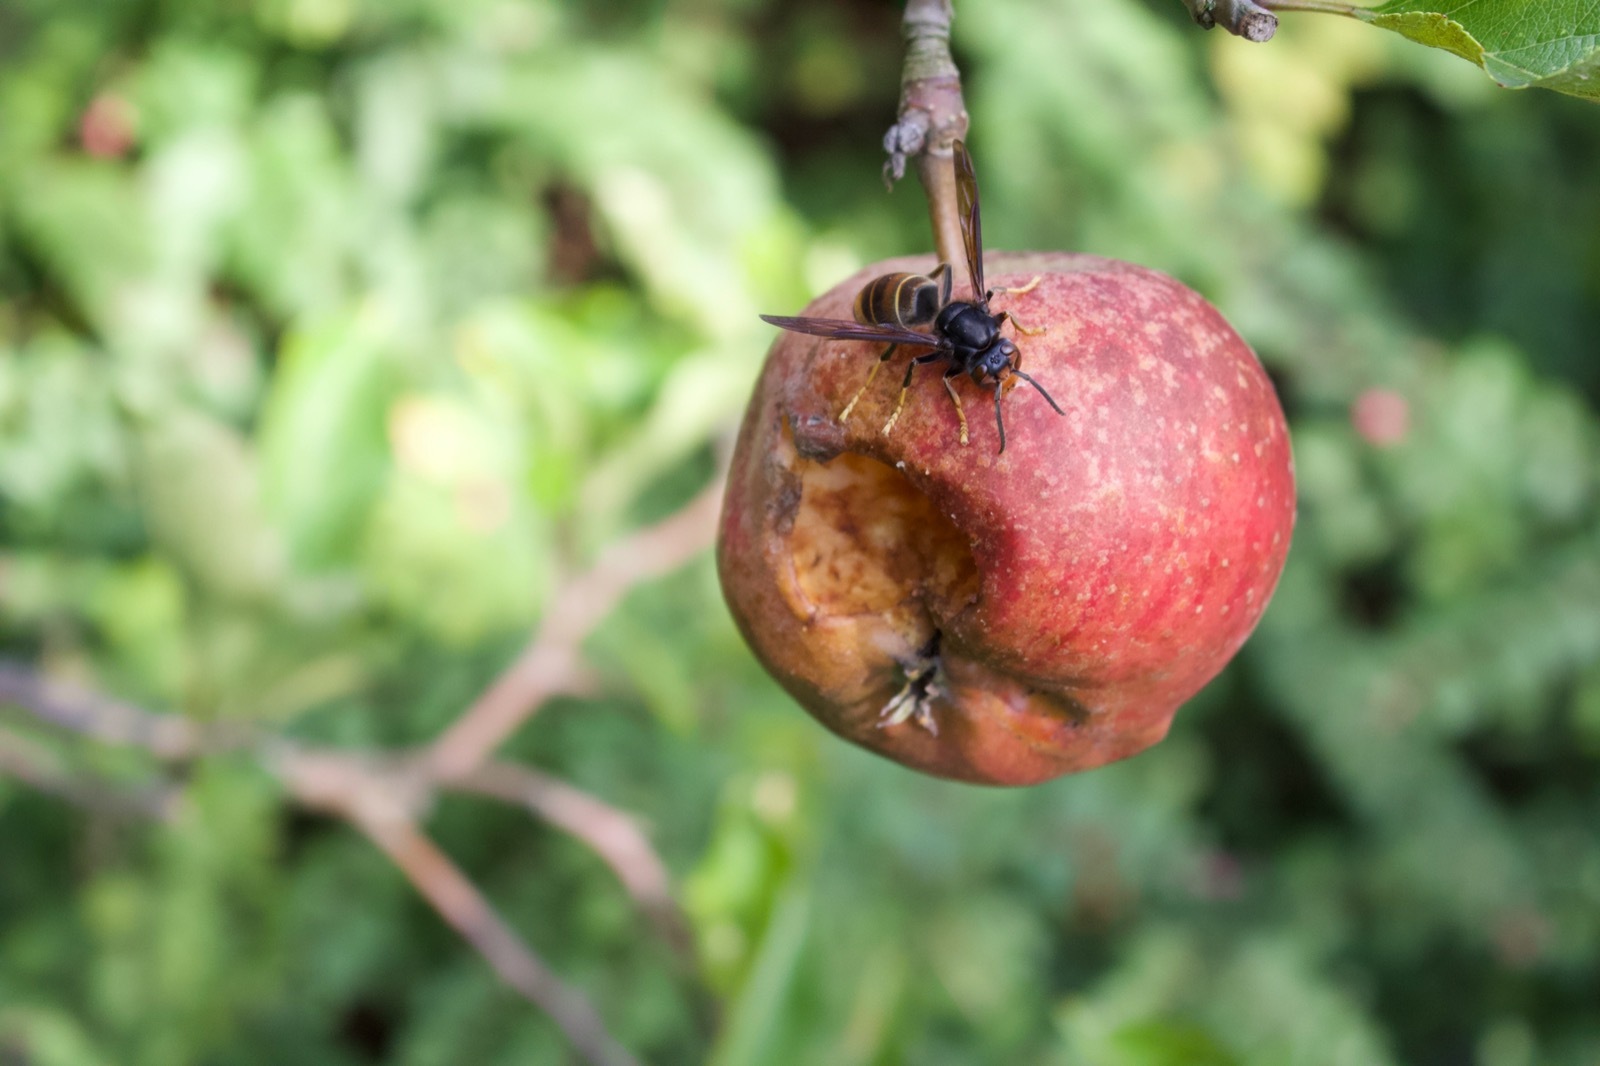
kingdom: Animalia
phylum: Arthropoda
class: Insecta
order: Hymenoptera
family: Vespidae
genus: Vespa
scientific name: Vespa velutina
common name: Asian hornet
